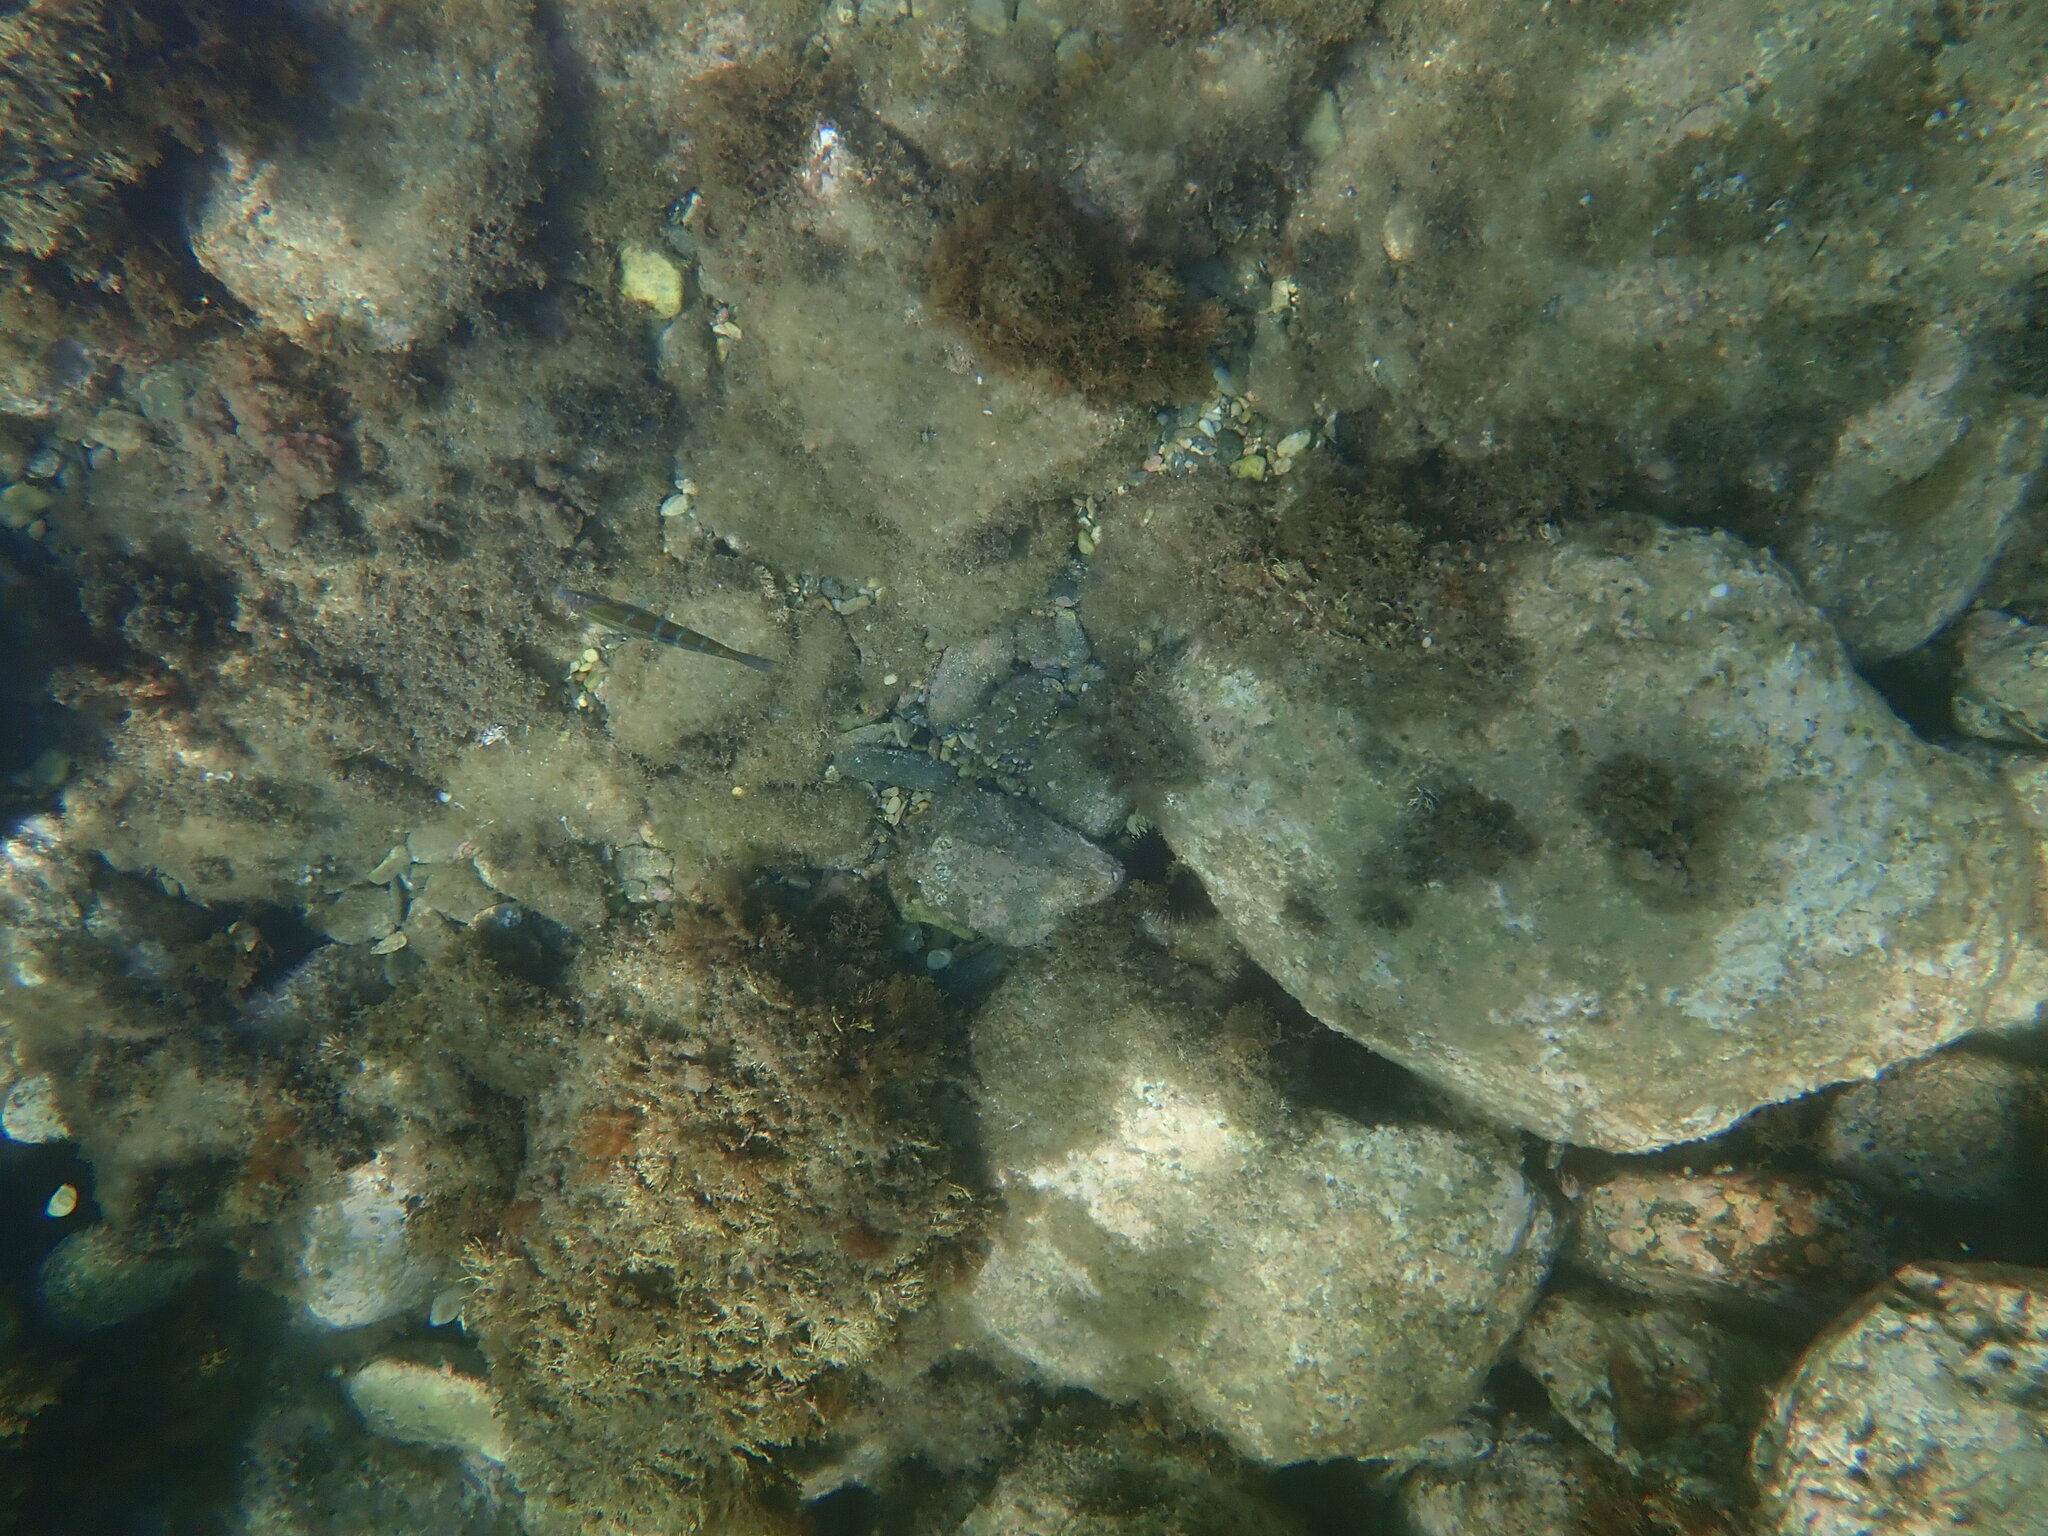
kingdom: Animalia
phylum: Chordata
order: Perciformes
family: Labridae
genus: Thalassoma
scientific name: Thalassoma pavo
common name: Ornate wrasse
